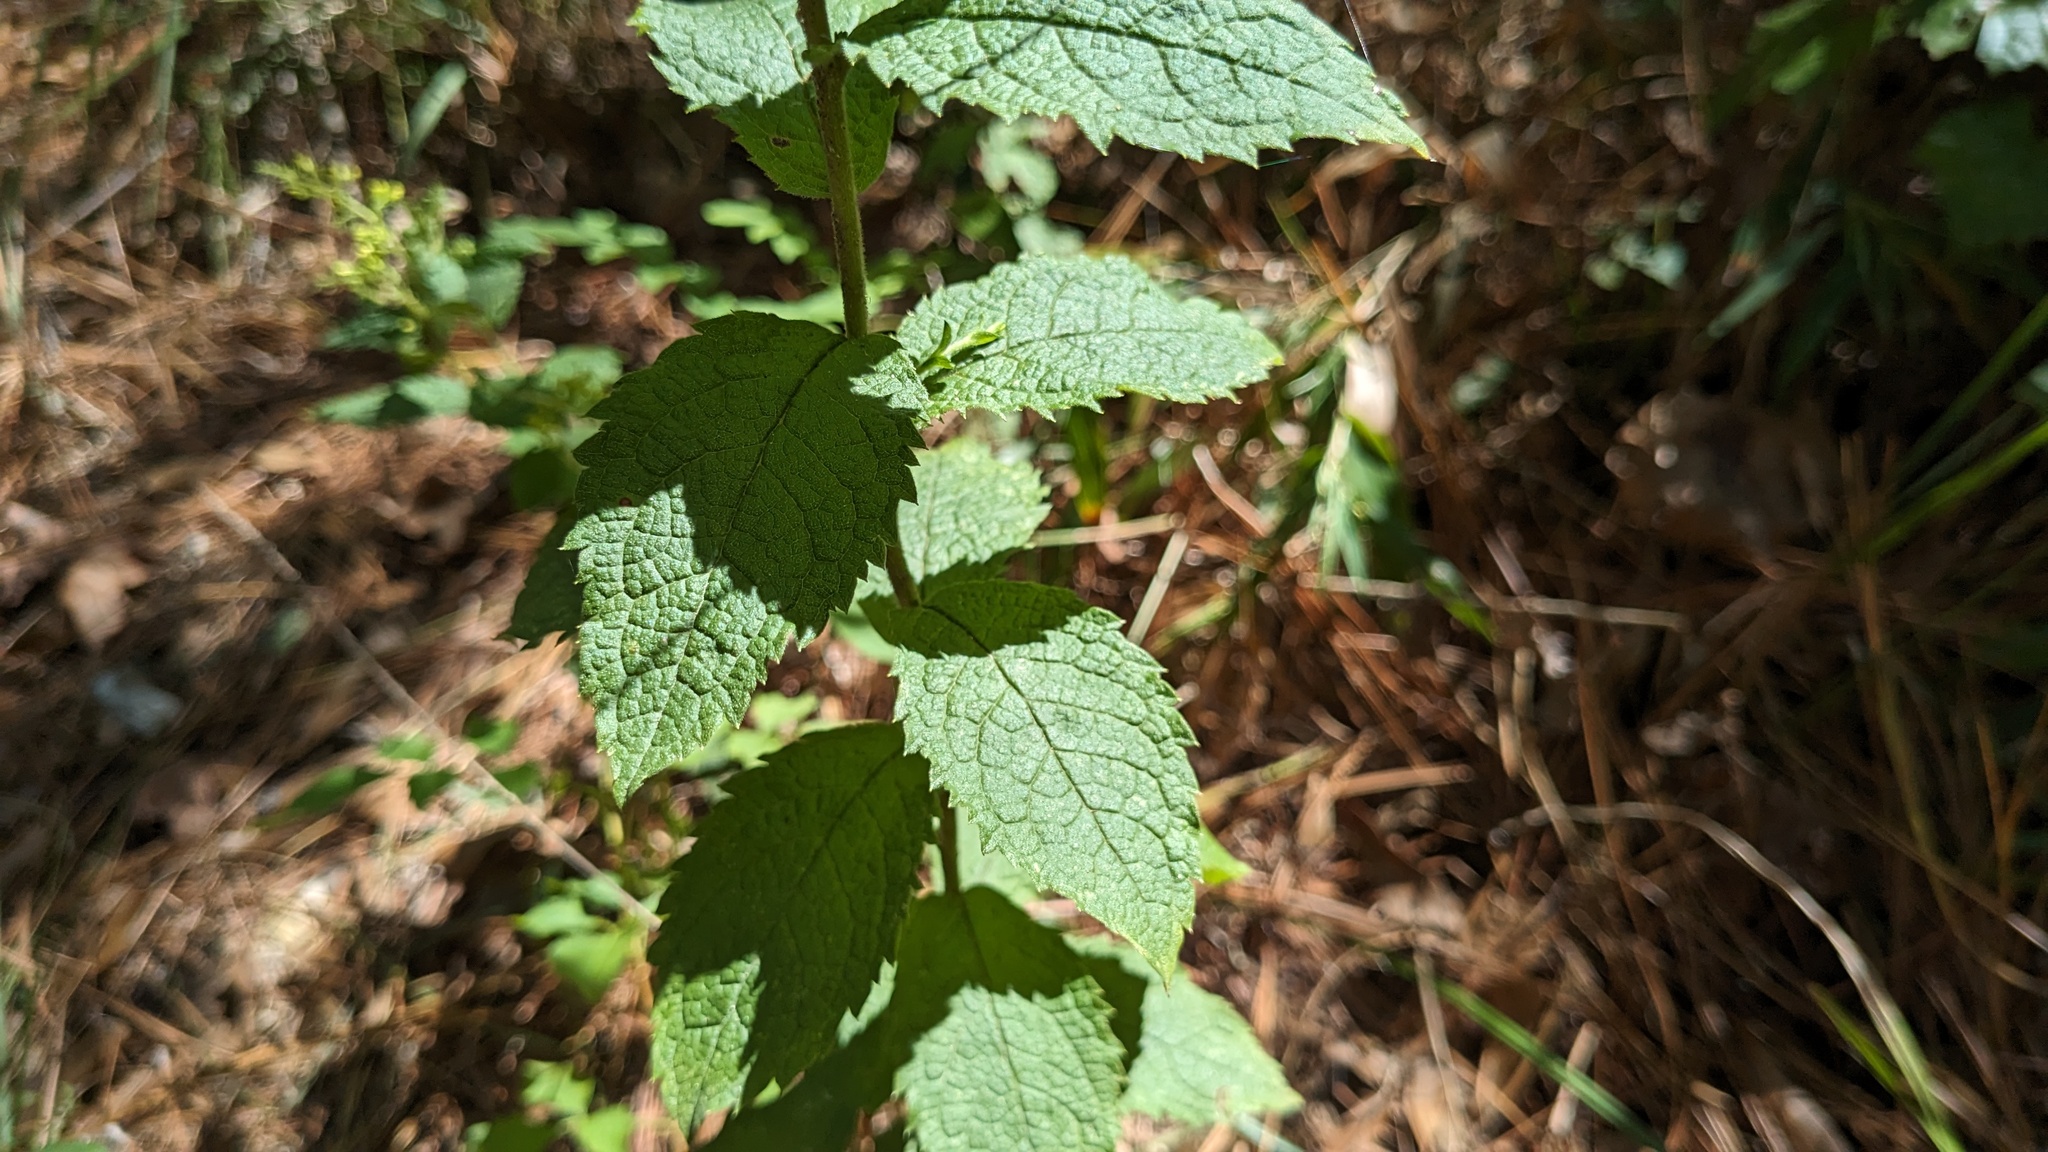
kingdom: Plantae
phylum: Tracheophyta
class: Magnoliopsida
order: Asterales
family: Asteraceae
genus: Solidago
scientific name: Solidago rugosa
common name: Rough-stemmed goldenrod
